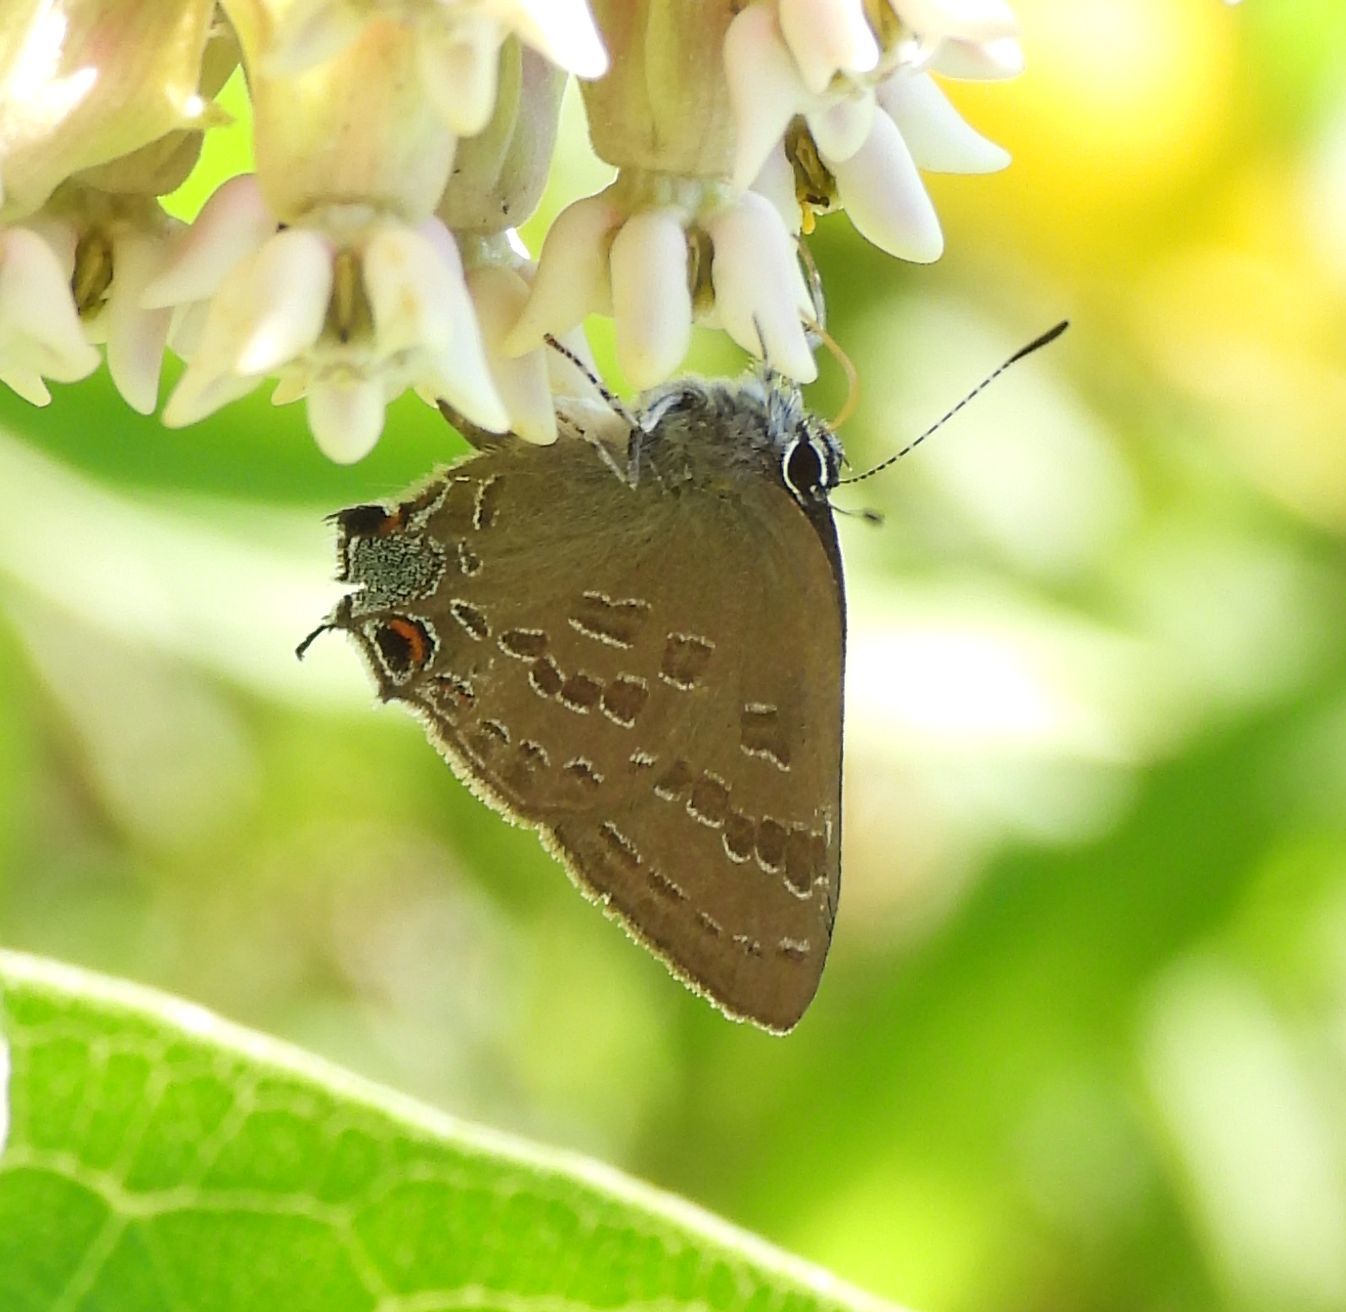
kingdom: Animalia
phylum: Arthropoda
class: Insecta
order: Lepidoptera
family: Lycaenidae
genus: Strymon
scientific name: Strymon caryaevorus
